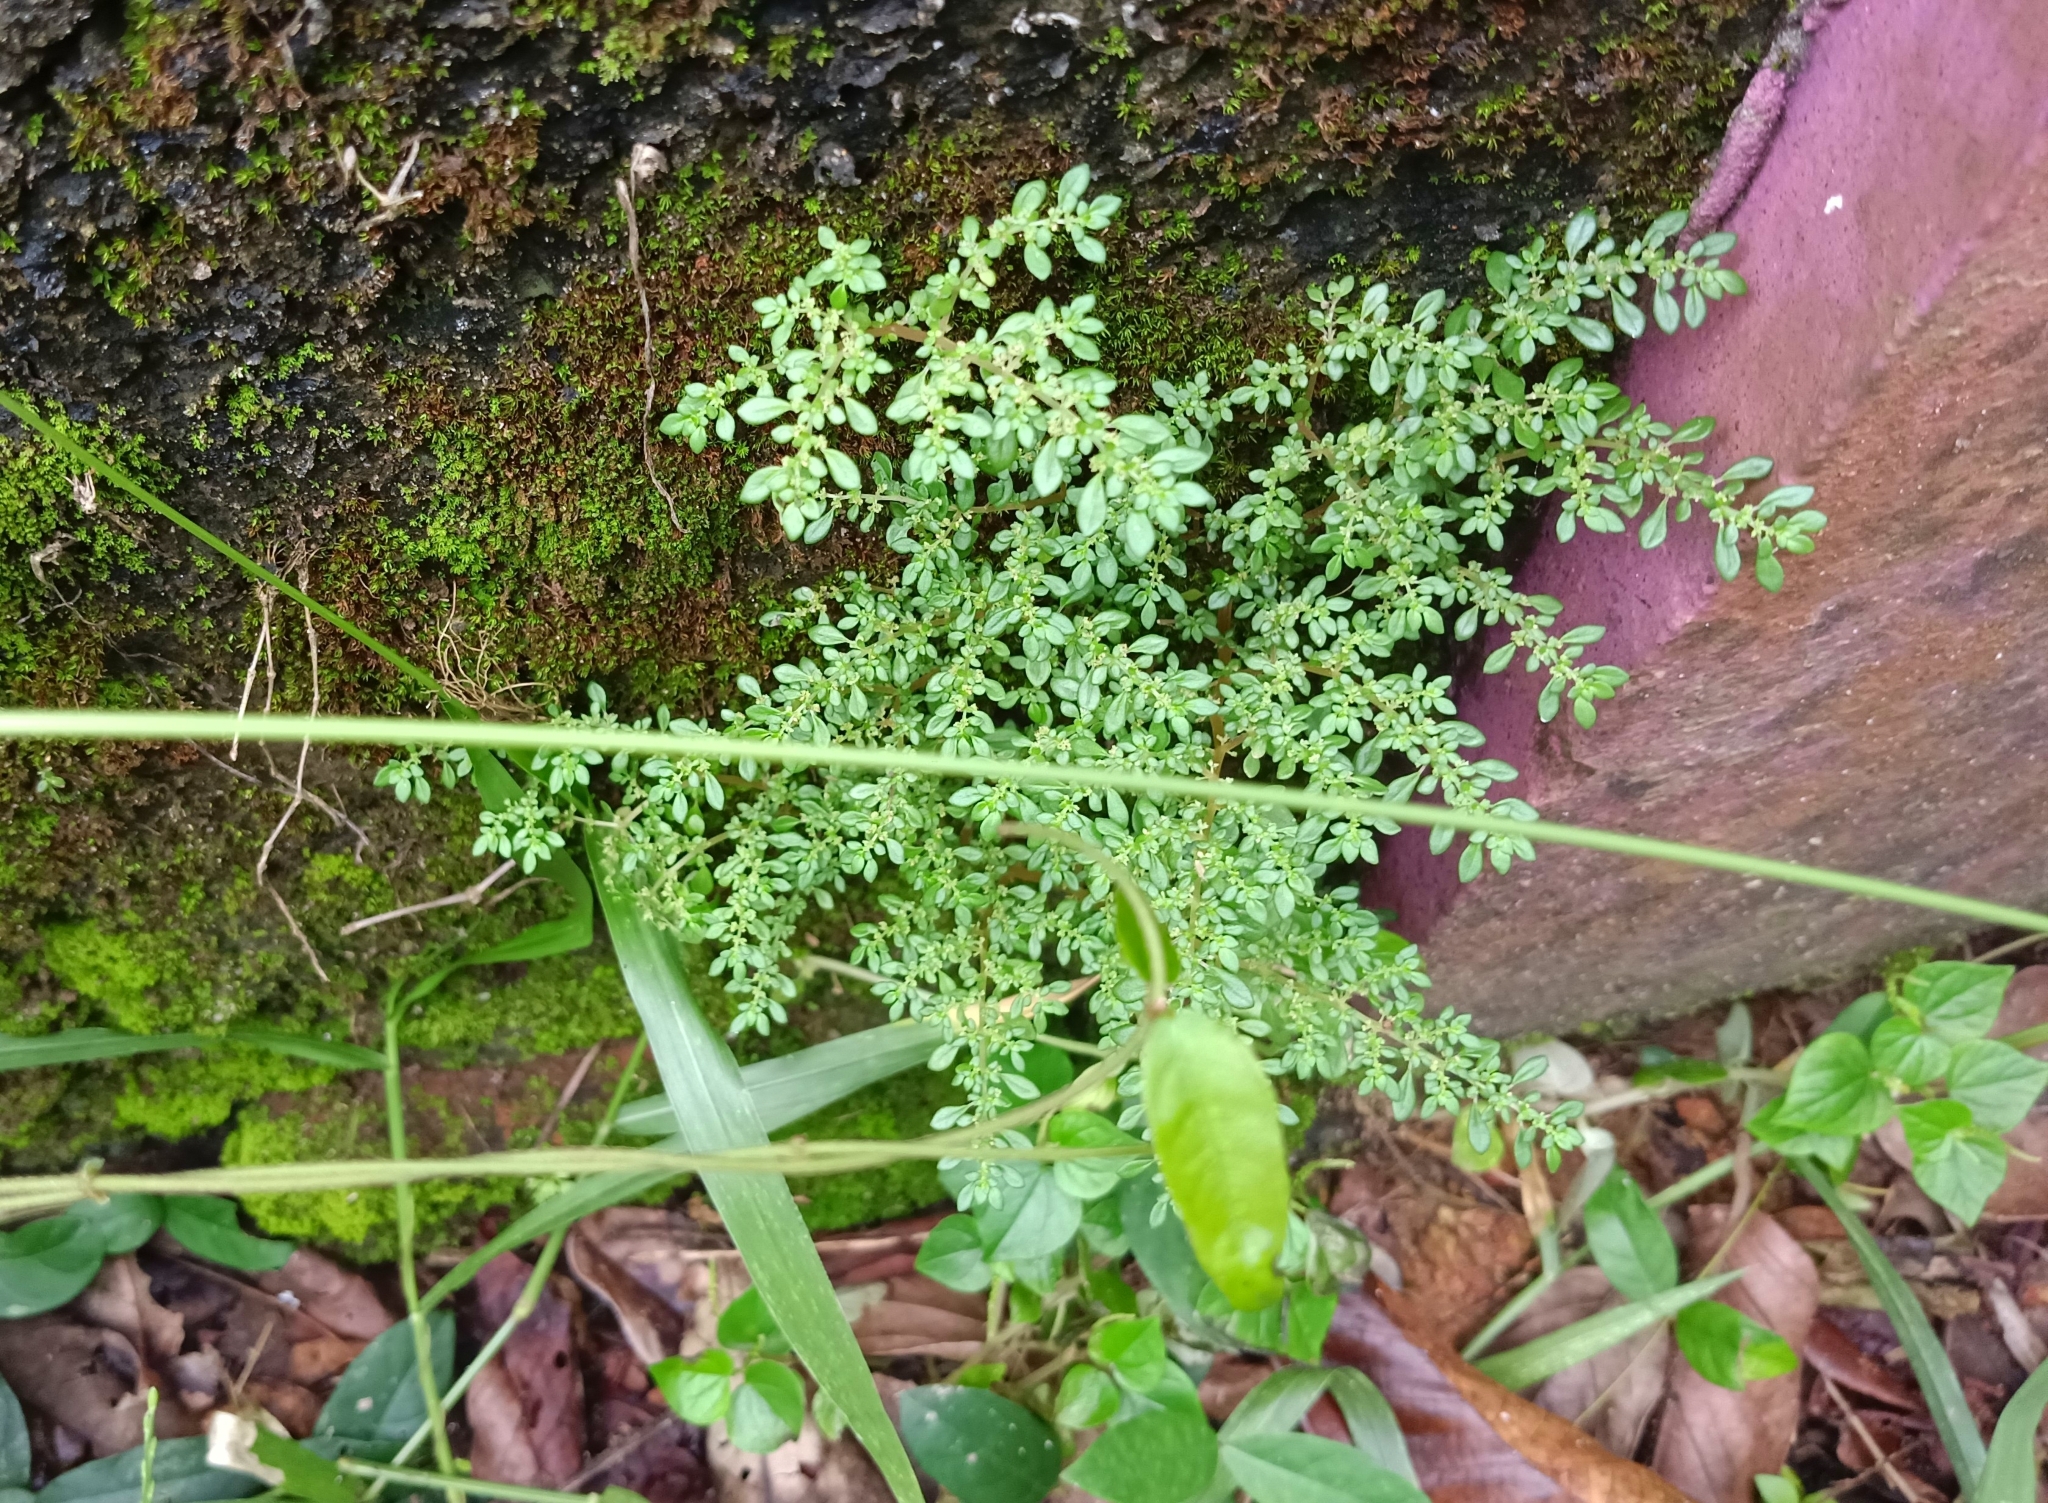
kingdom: Plantae
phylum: Tracheophyta
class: Magnoliopsida
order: Rosales
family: Urticaceae
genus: Pilea
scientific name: Pilea microphylla
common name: Artillery-plant
